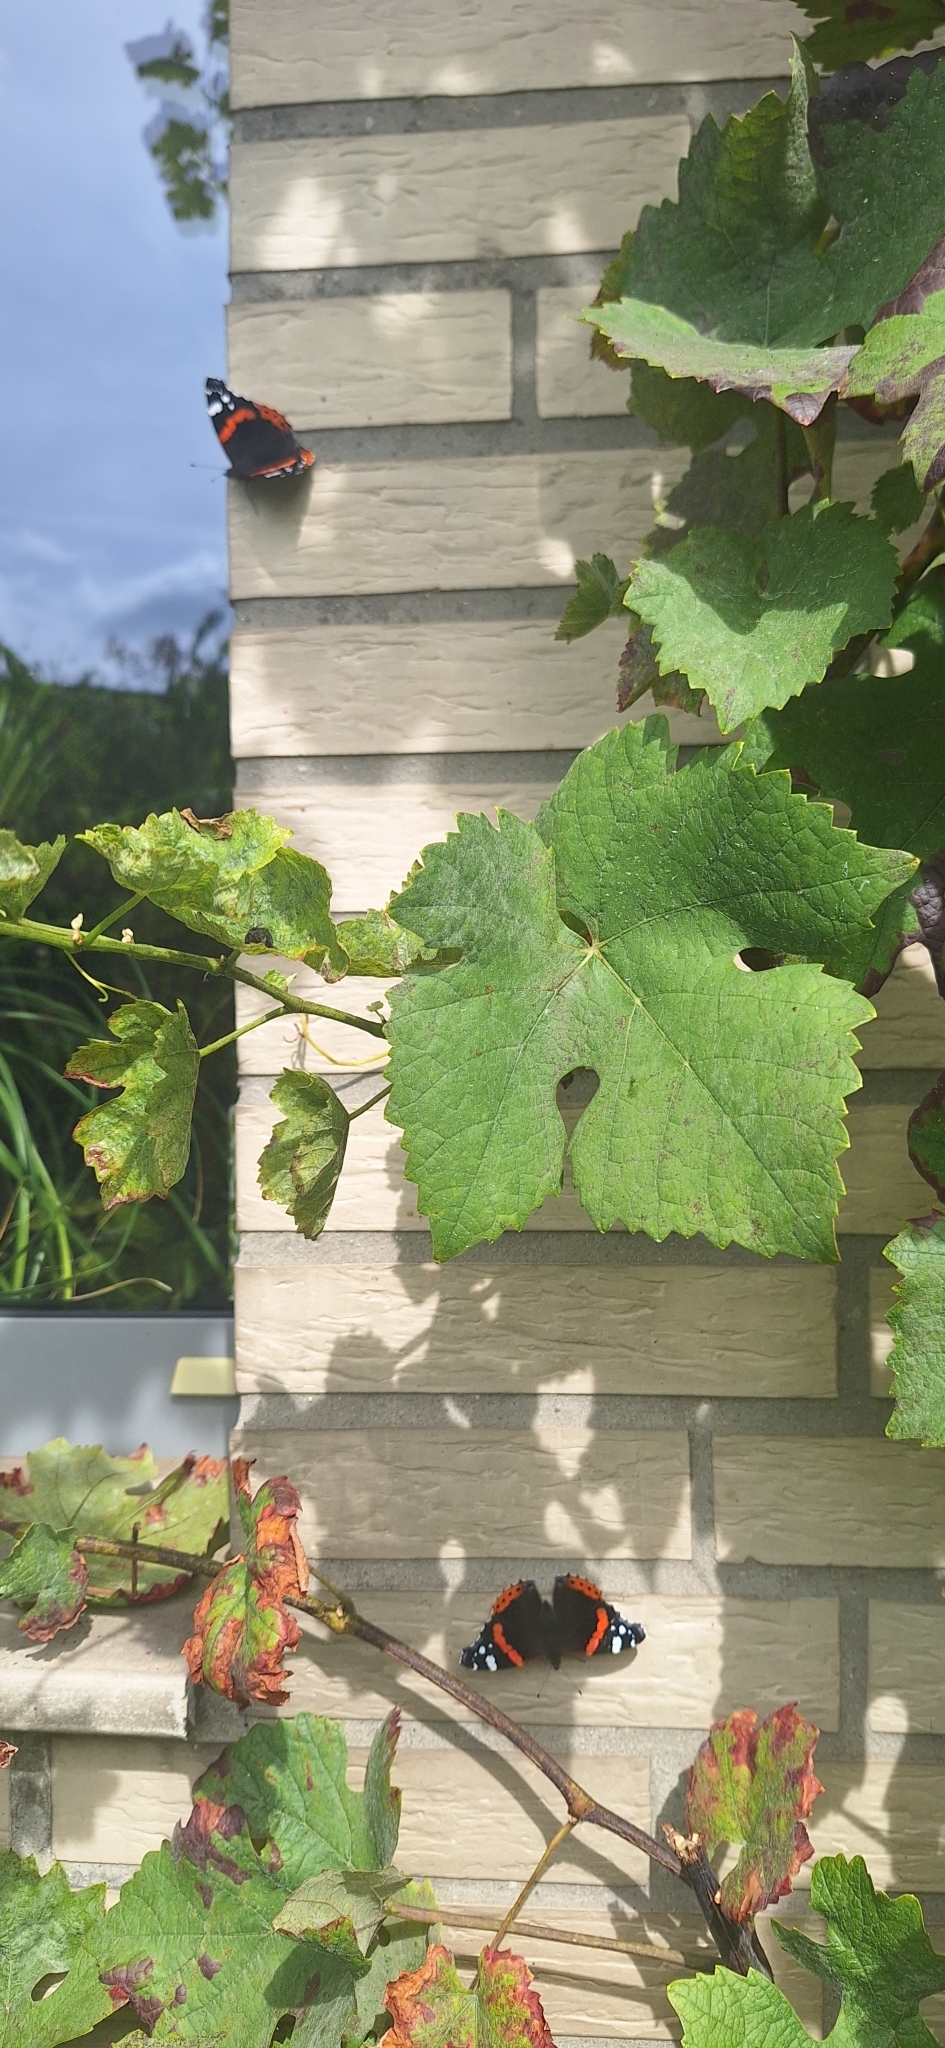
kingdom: Animalia
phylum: Arthropoda
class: Insecta
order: Lepidoptera
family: Nymphalidae
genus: Vanessa
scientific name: Vanessa atalanta
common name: Red admiral
